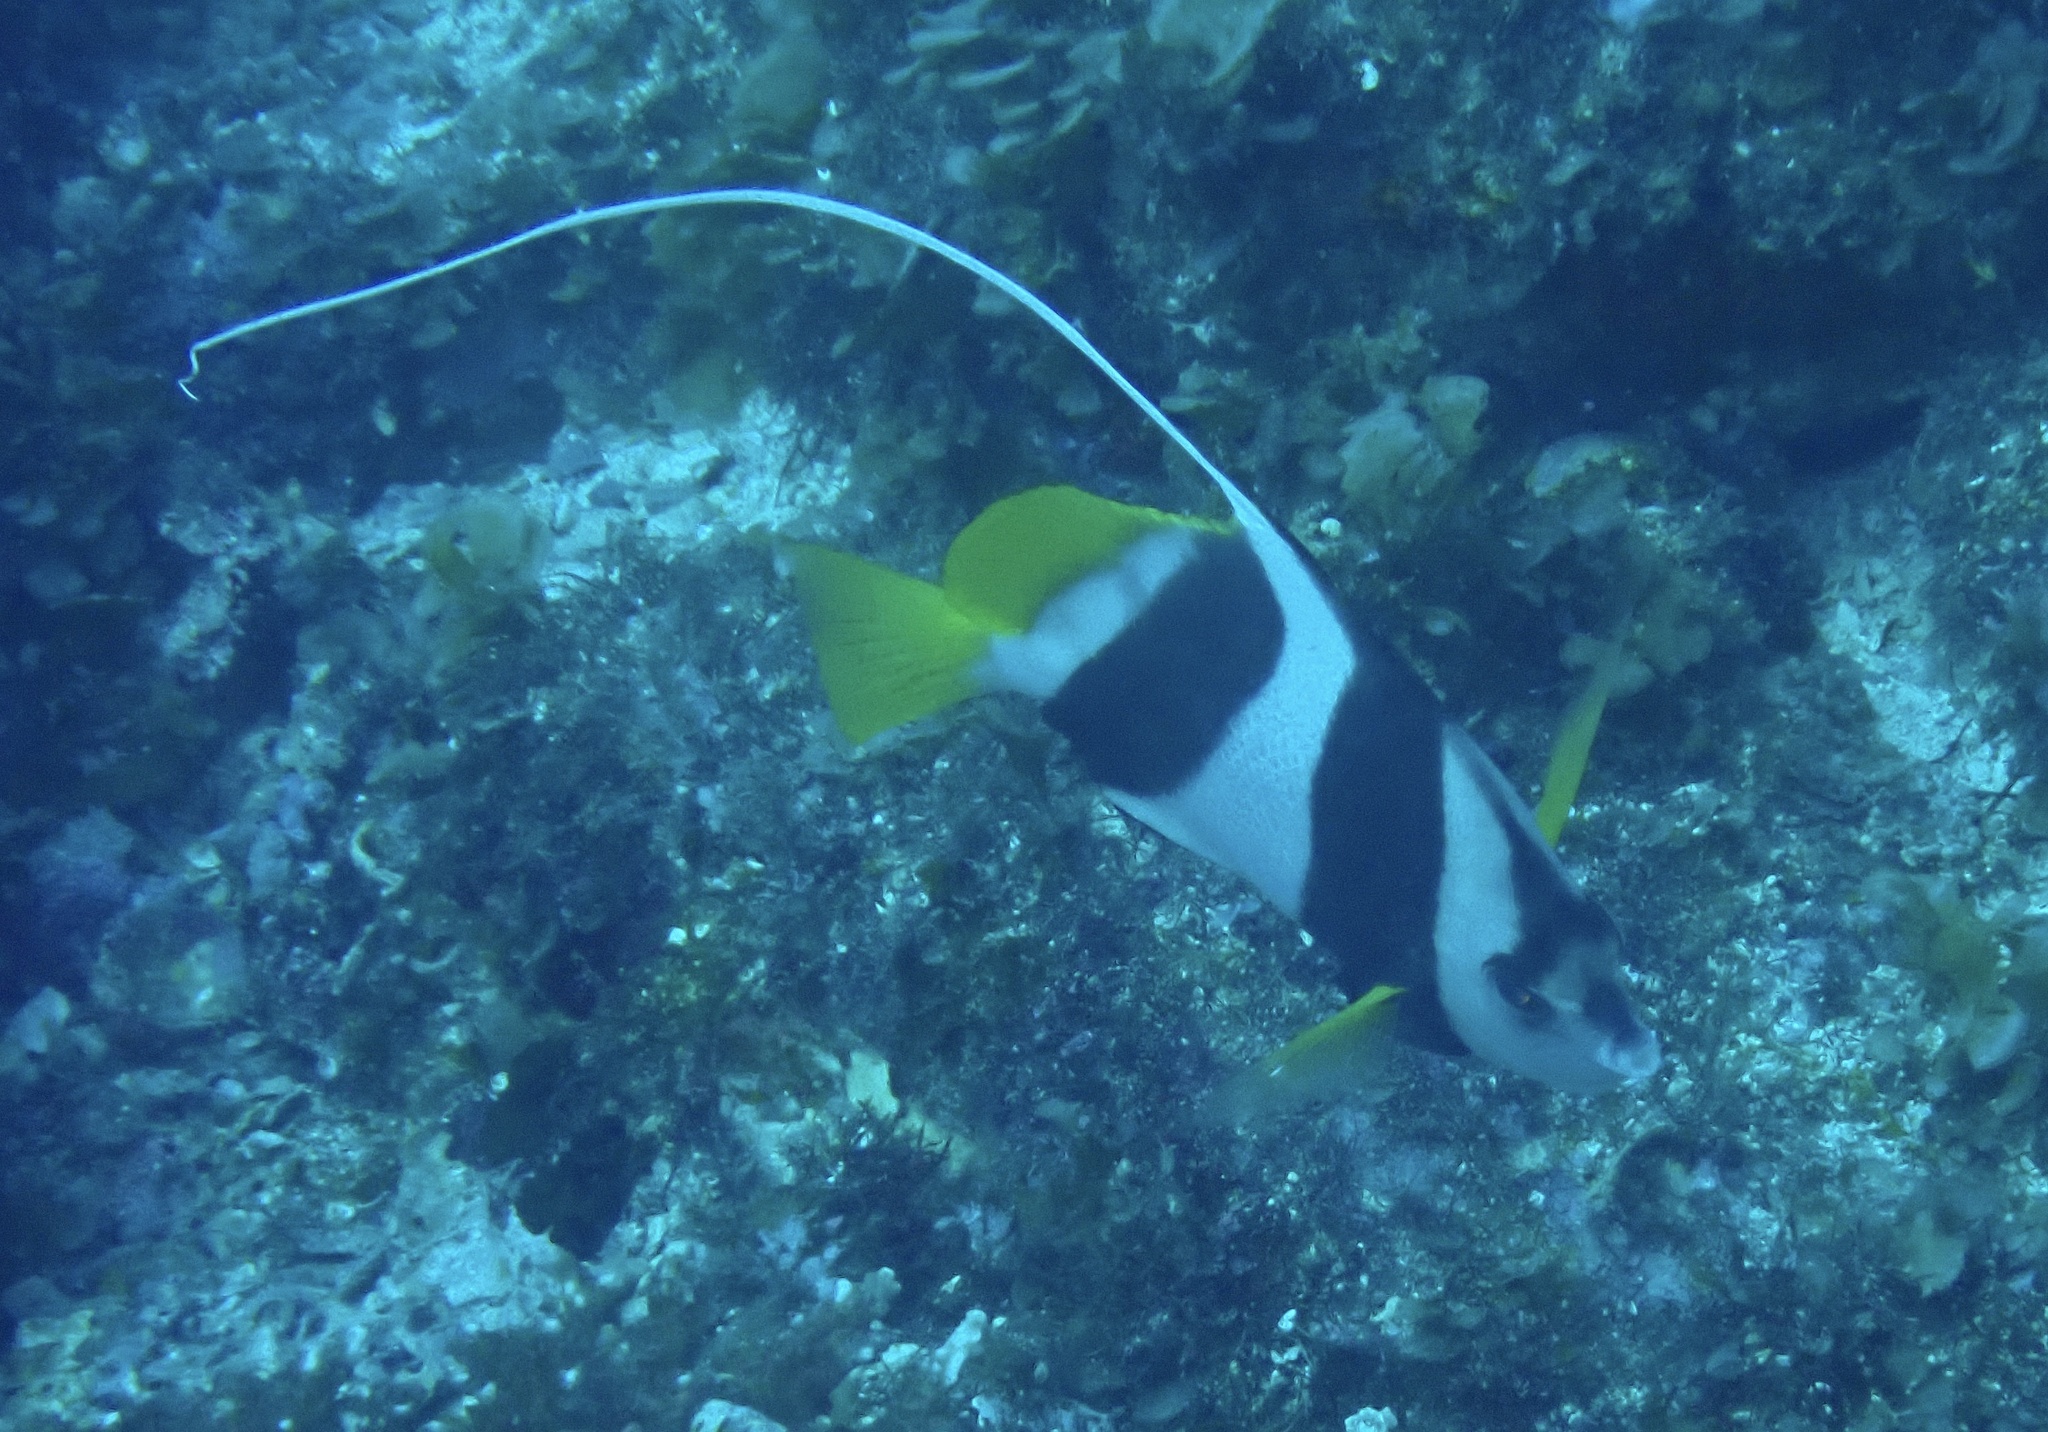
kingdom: Animalia
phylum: Chordata
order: Perciformes
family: Chaetodontidae
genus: Heniochus
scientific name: Heniochus acuminatus
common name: Pennant coralfish
